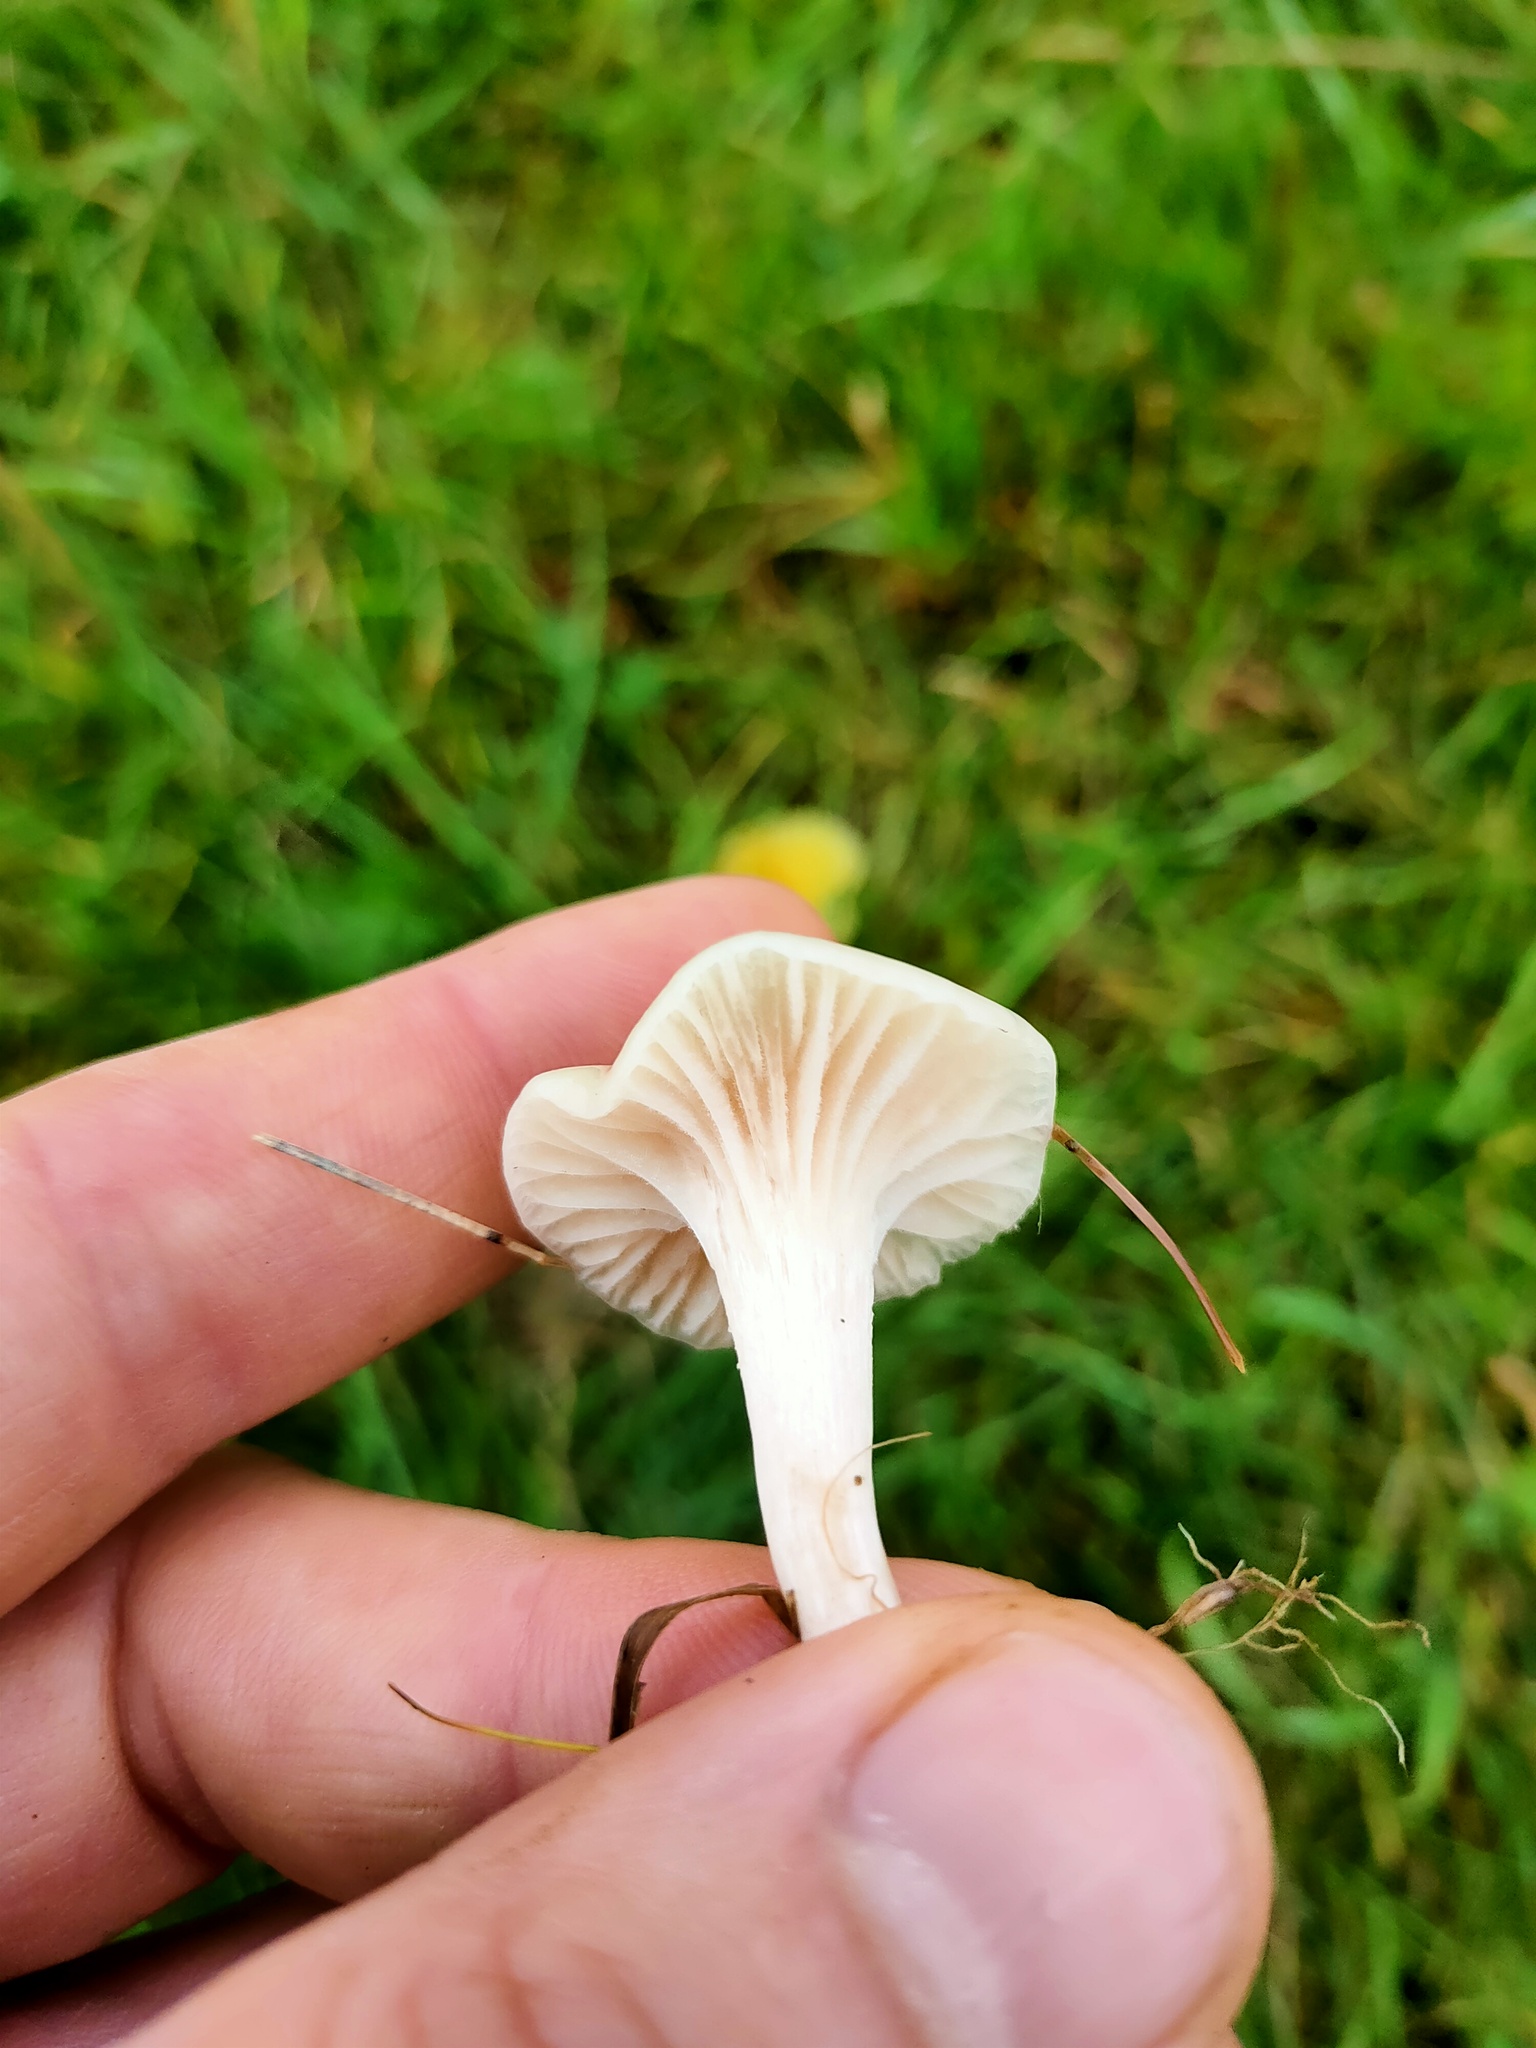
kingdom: Fungi
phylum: Basidiomycota
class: Agaricomycetes
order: Agaricales
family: Hygrophoraceae
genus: Cuphophyllus
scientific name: Cuphophyllus virgineus
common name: Snowy waxcap
